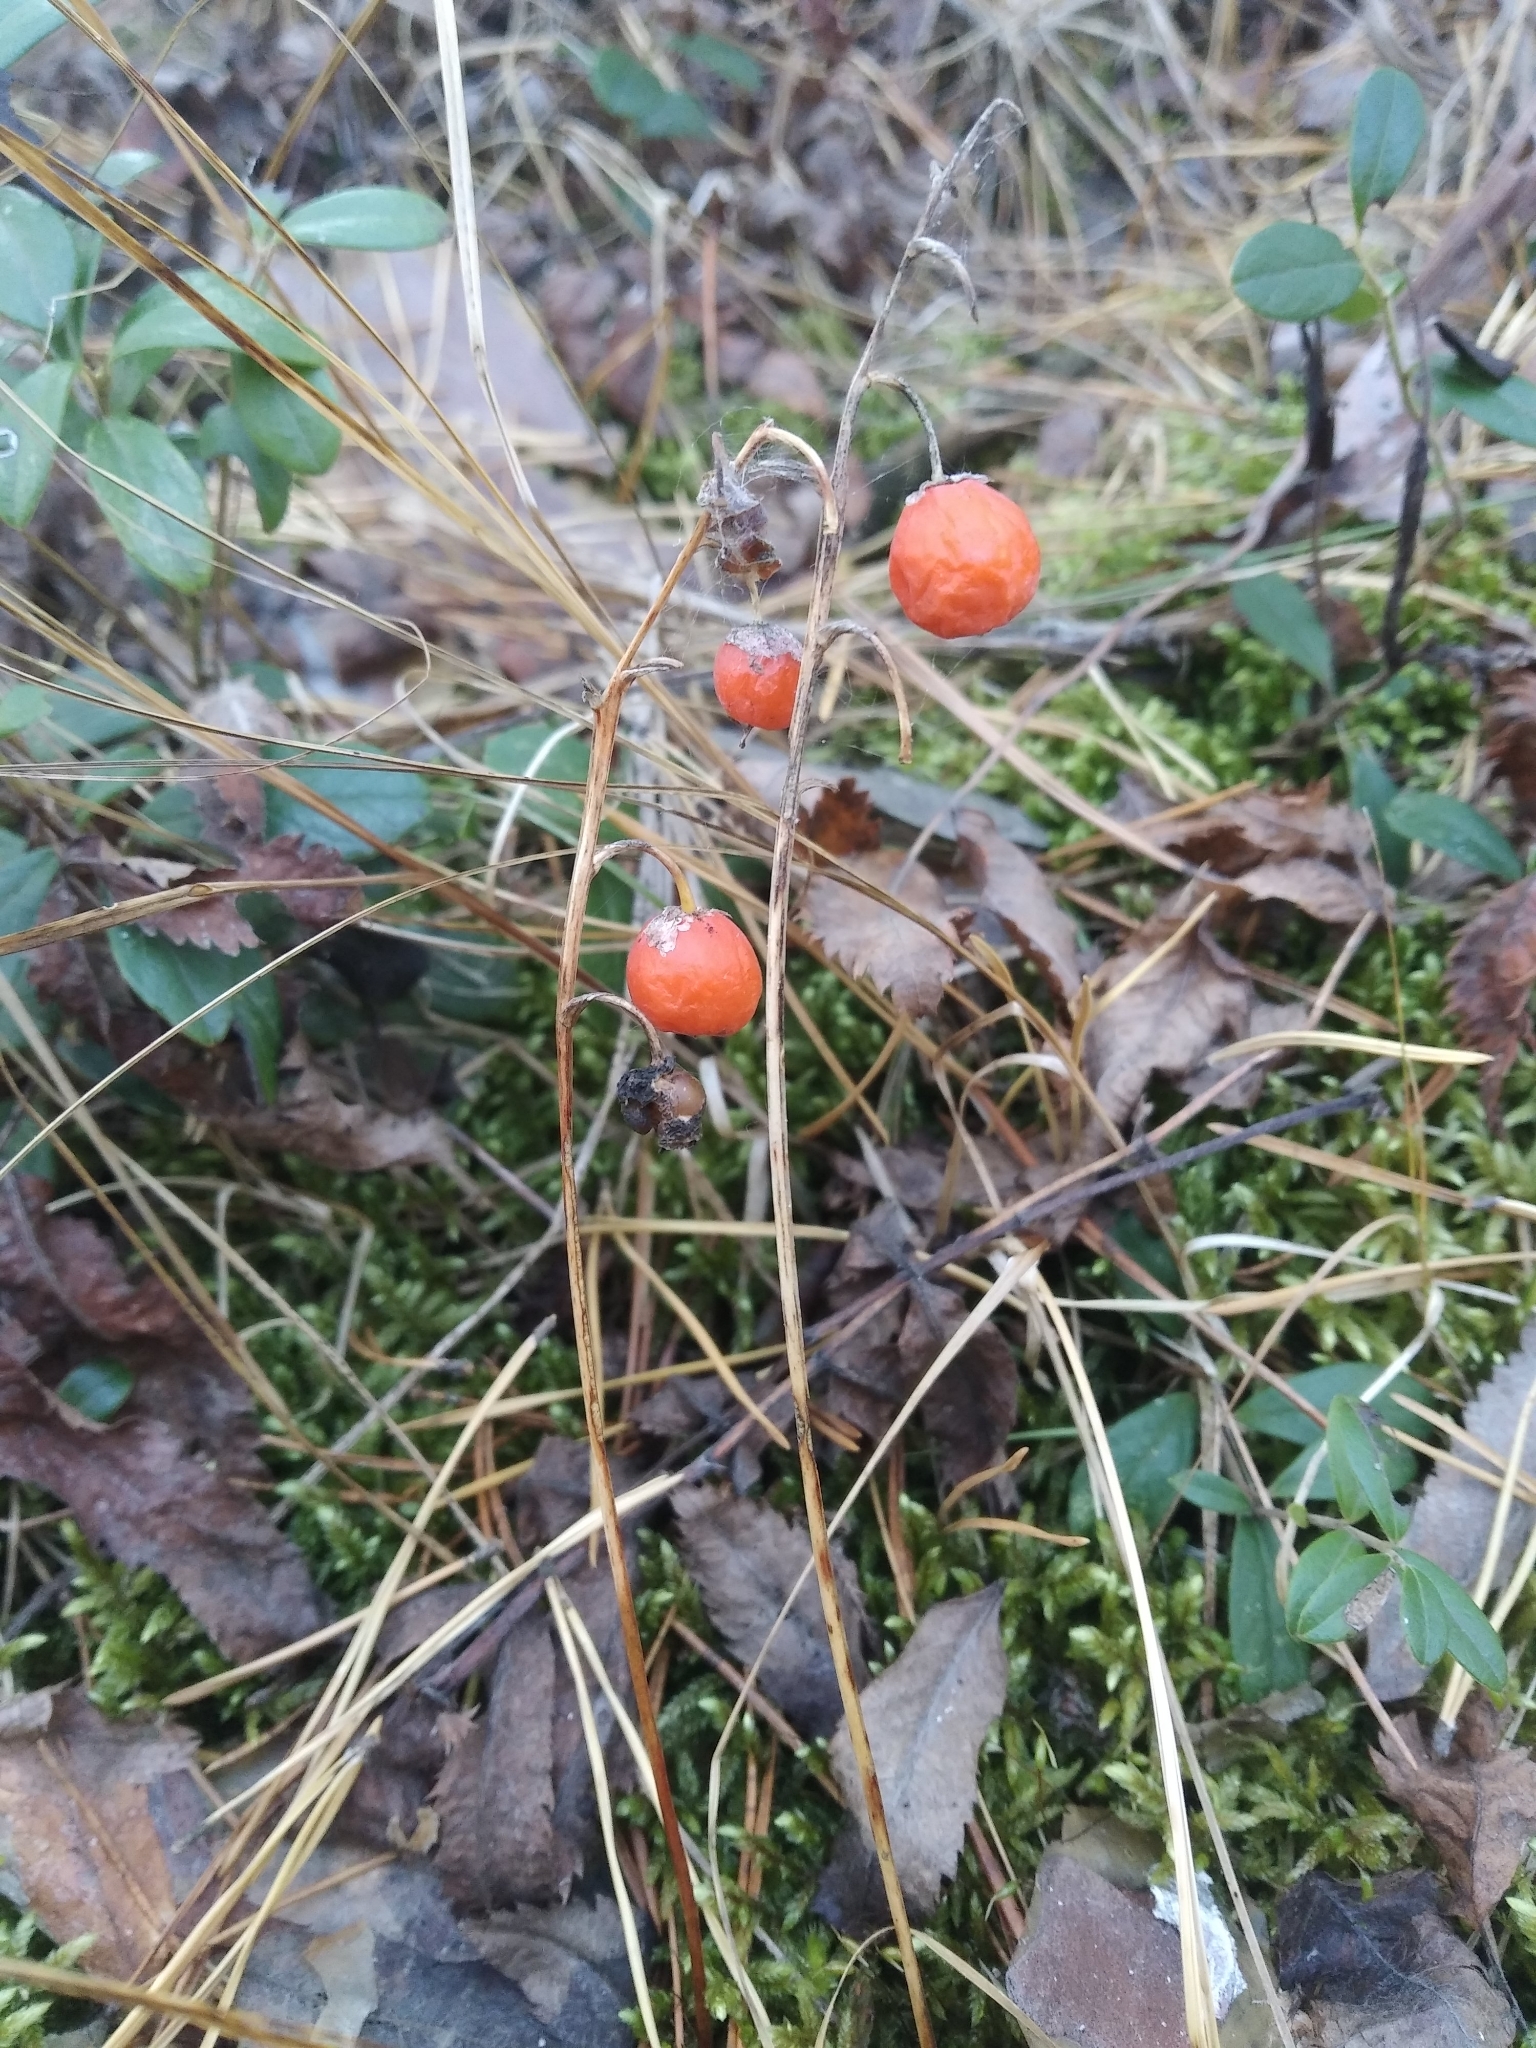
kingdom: Plantae
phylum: Tracheophyta
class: Liliopsida
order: Asparagales
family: Asparagaceae
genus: Convallaria
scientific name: Convallaria majalis
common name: Lily-of-the-valley
